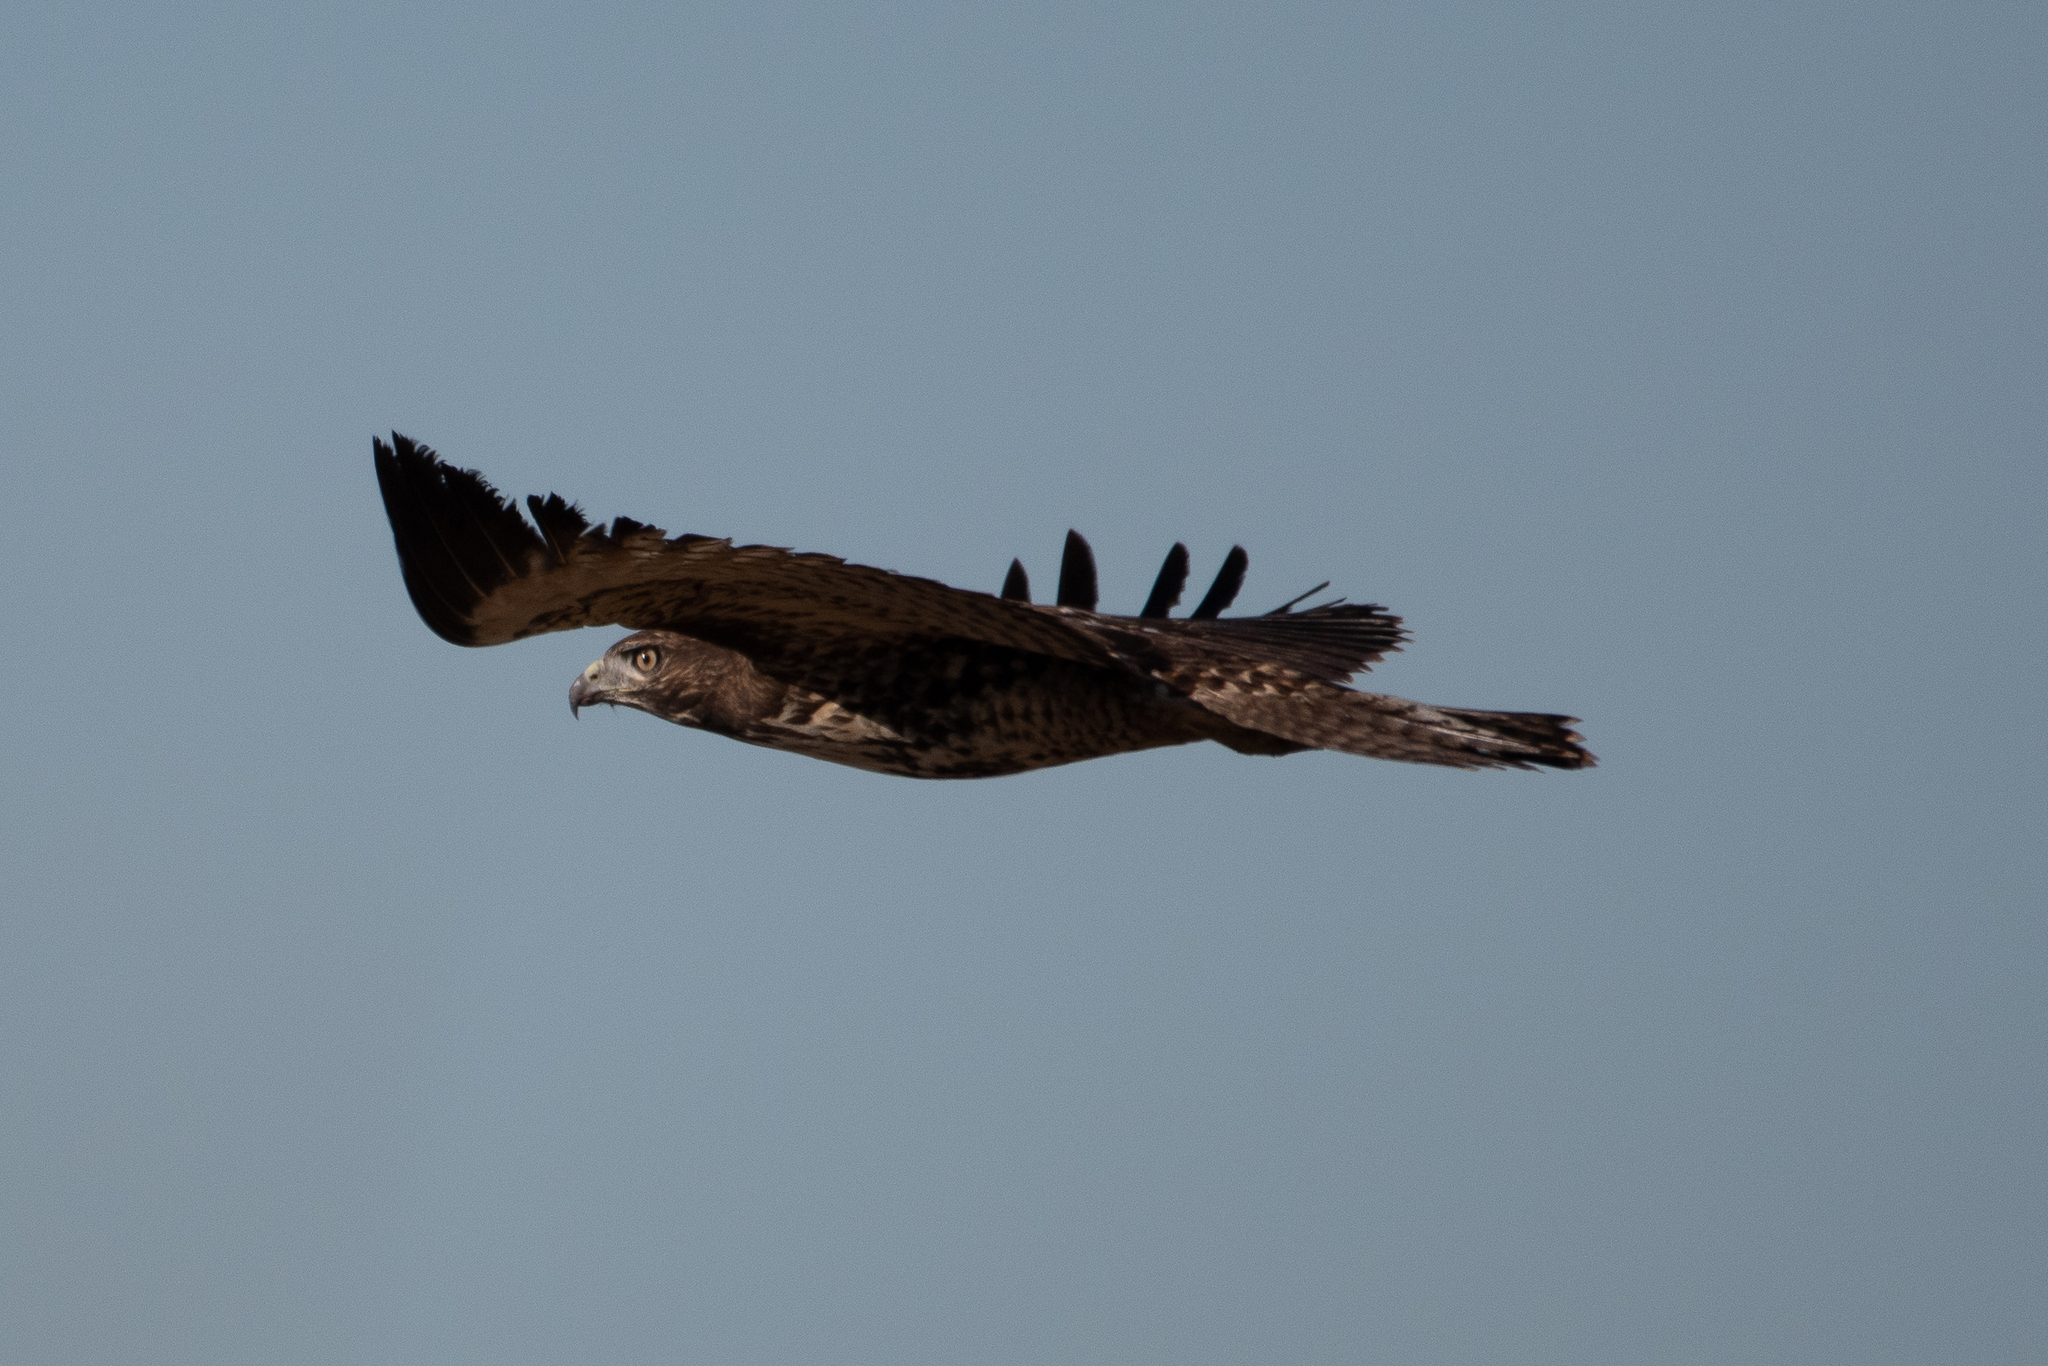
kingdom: Animalia
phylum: Chordata
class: Aves
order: Accipitriformes
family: Accipitridae
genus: Buteo
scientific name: Buteo jamaicensis
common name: Red-tailed hawk
